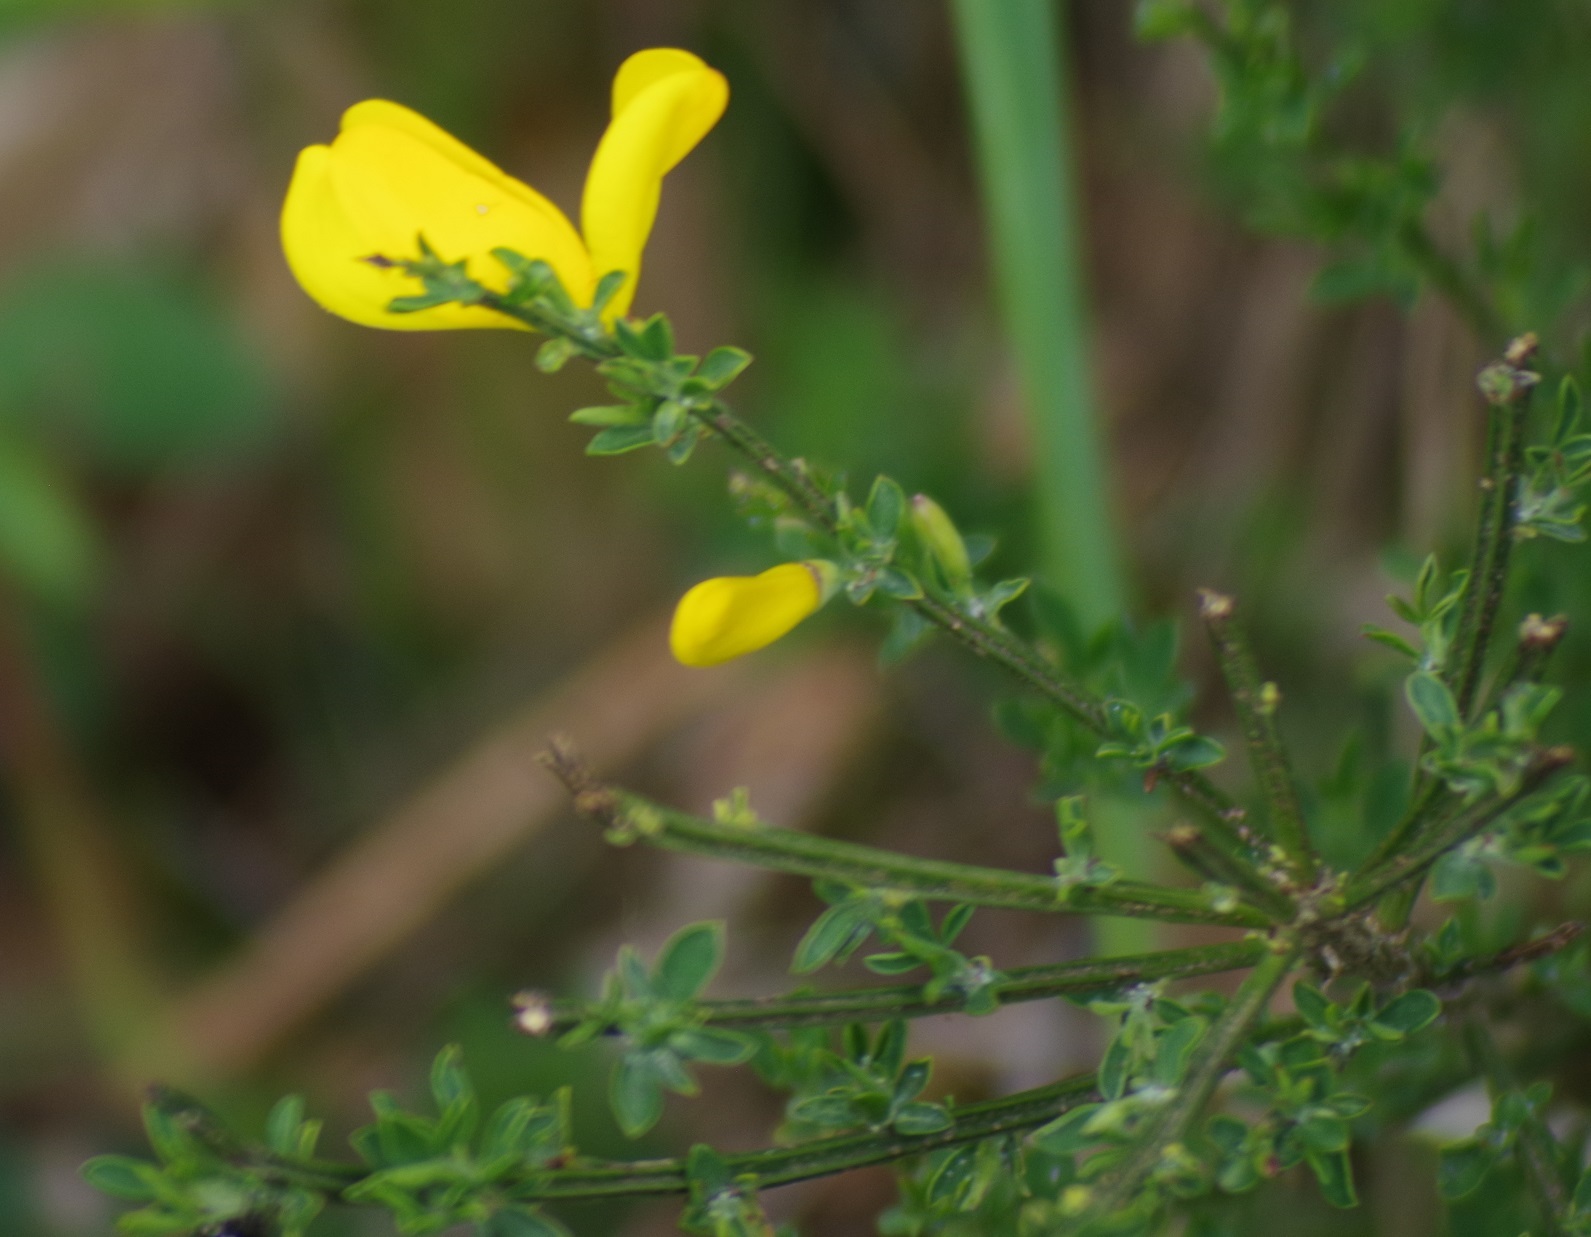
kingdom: Plantae
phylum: Tracheophyta
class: Magnoliopsida
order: Fabales
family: Fabaceae
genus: Cytisus
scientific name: Cytisus scoparius
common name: Scotch broom
